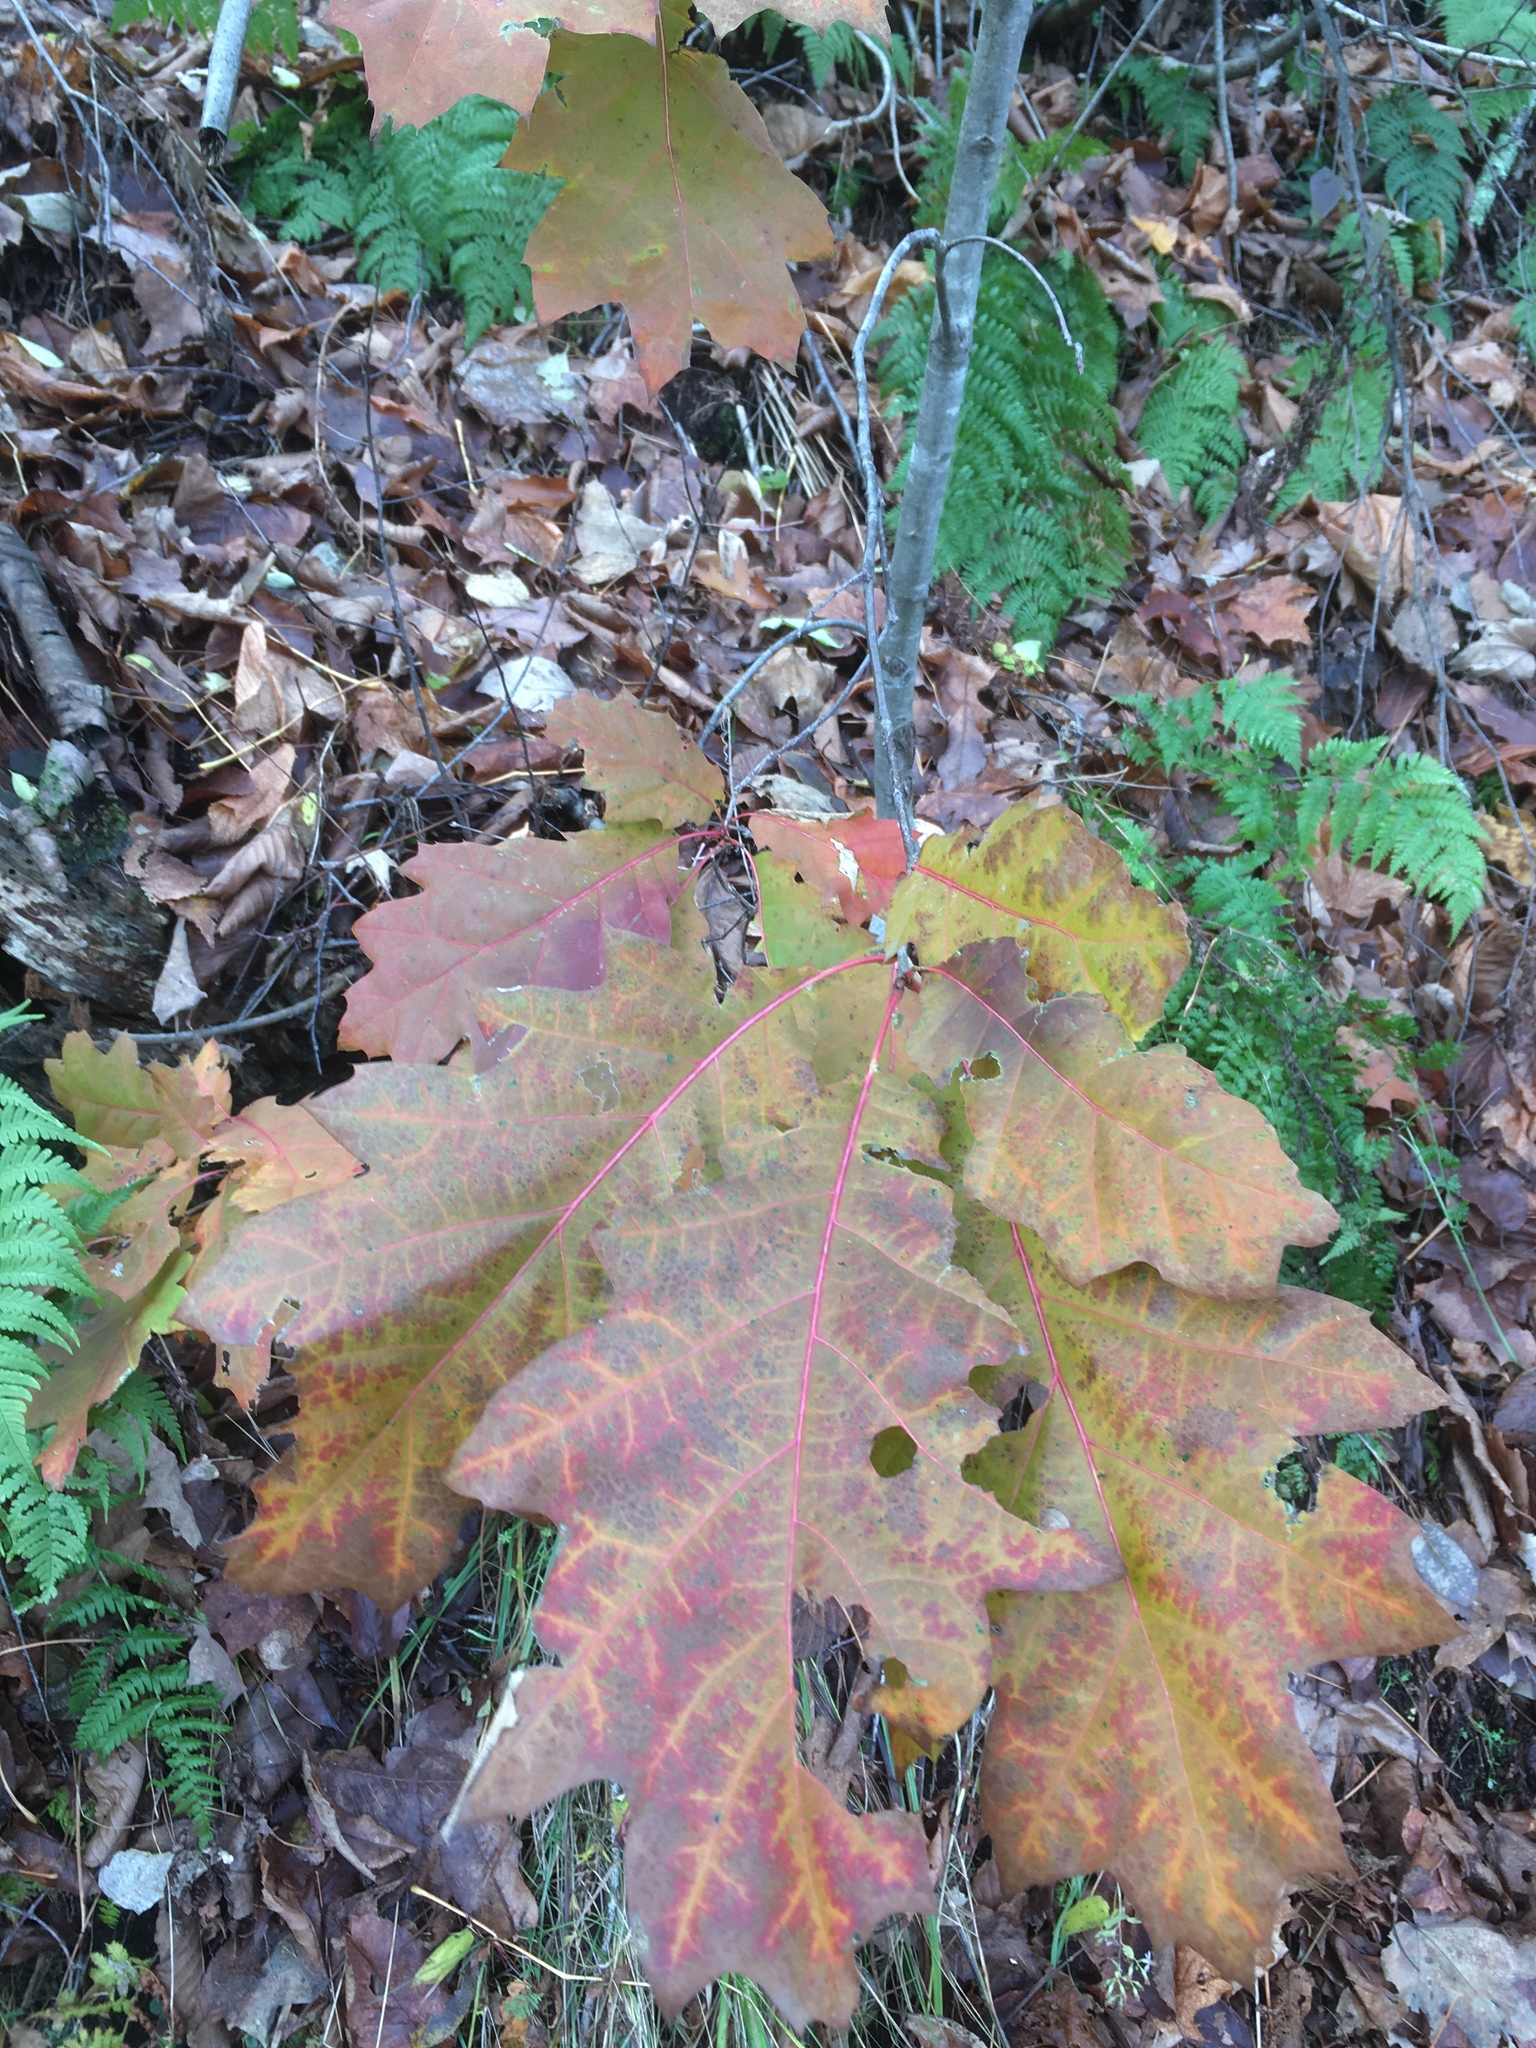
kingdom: Plantae
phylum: Tracheophyta
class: Magnoliopsida
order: Fagales
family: Fagaceae
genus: Quercus
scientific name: Quercus rubra
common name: Red oak
